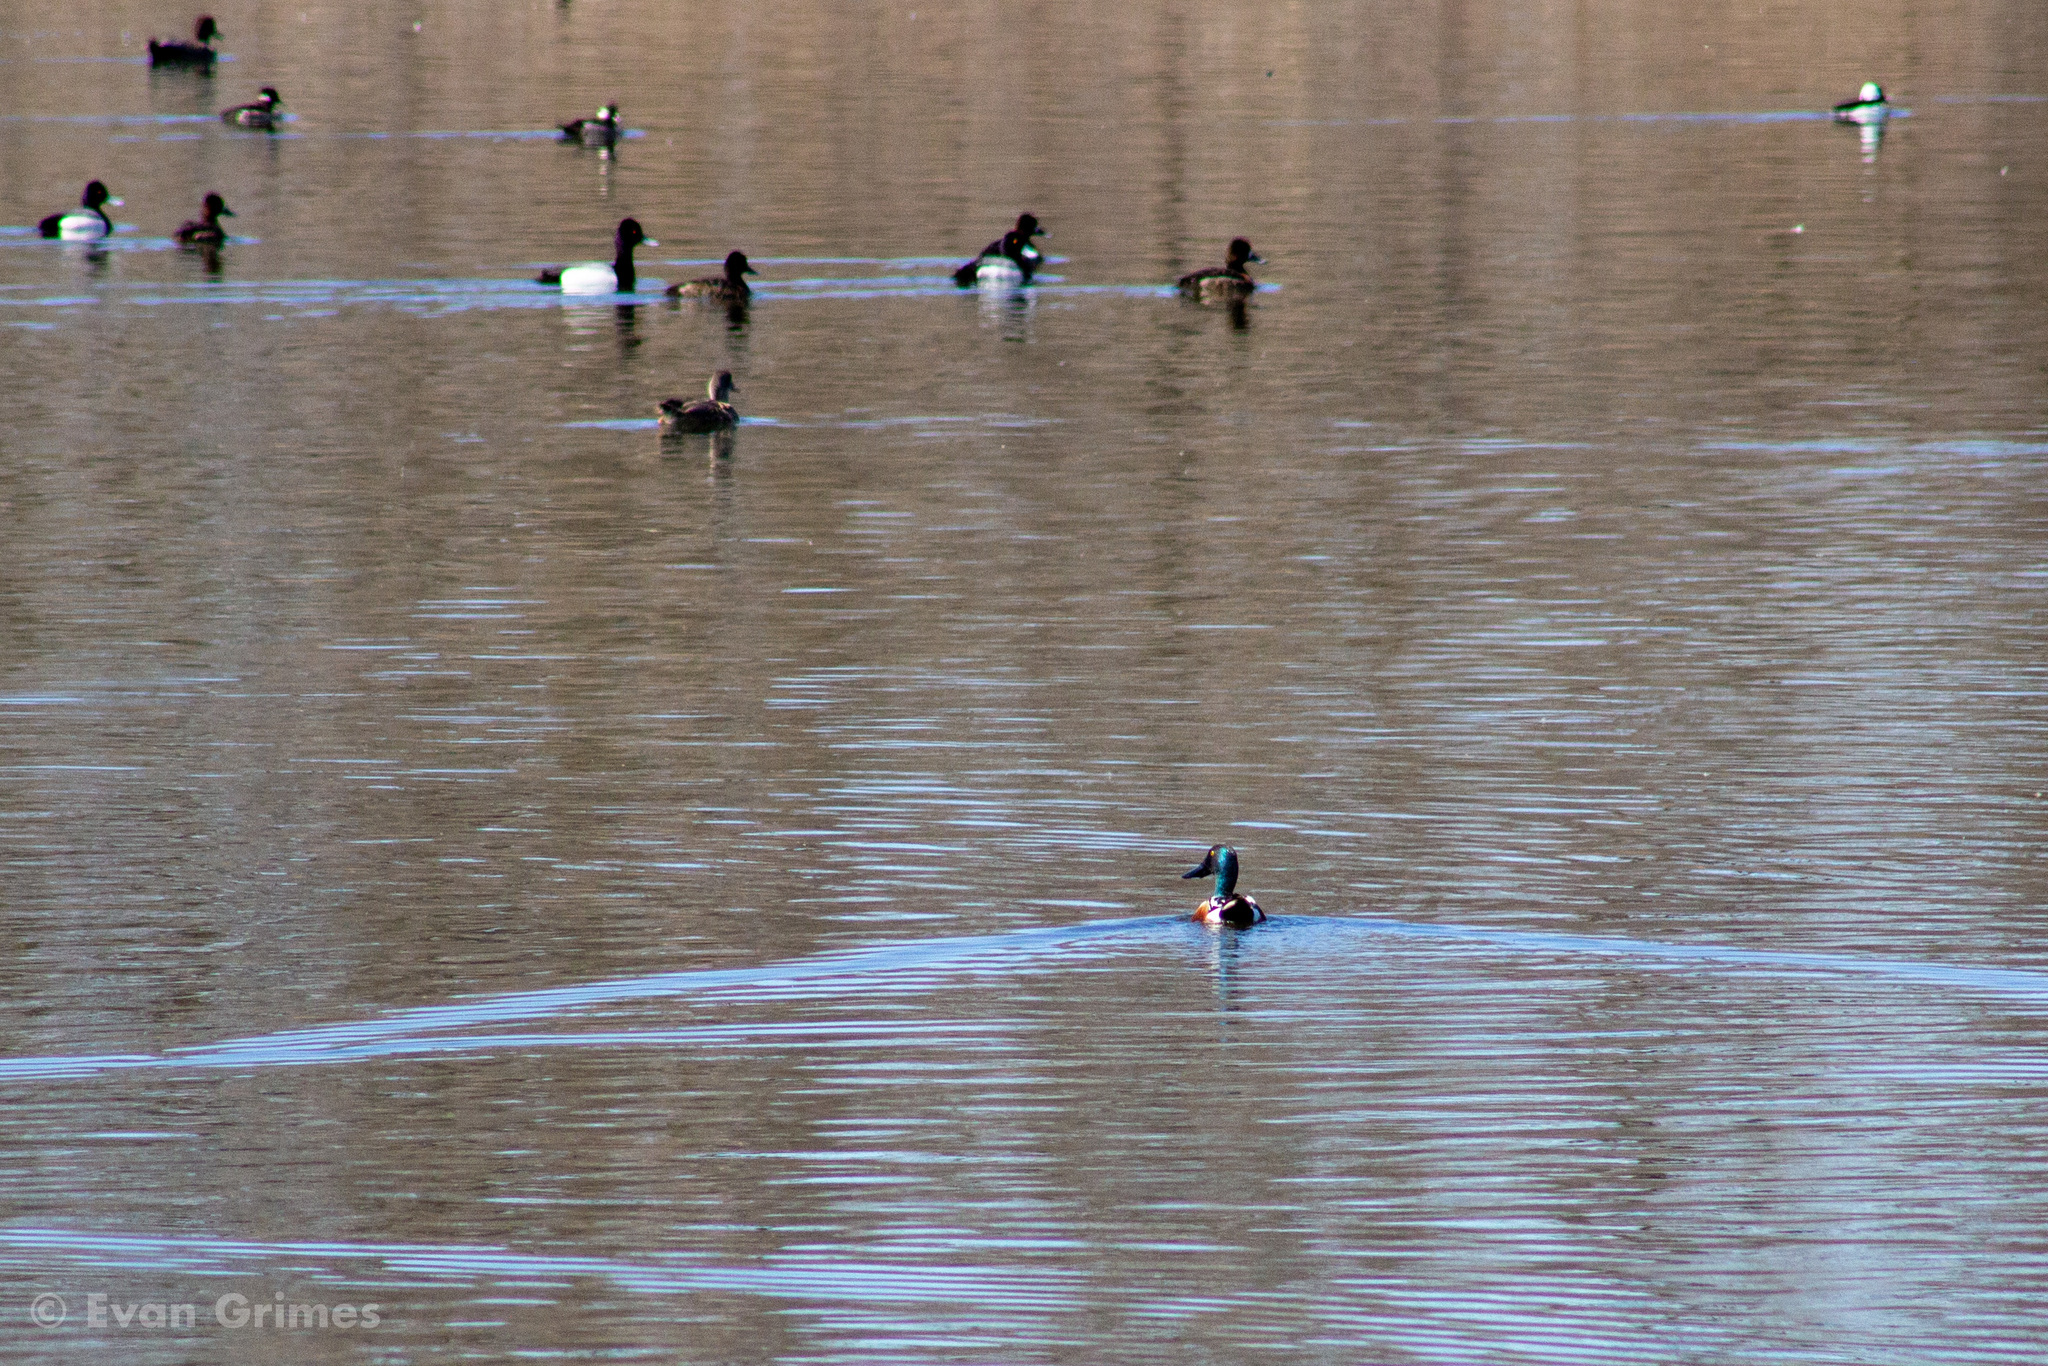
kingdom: Animalia
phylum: Chordata
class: Aves
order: Anseriformes
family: Anatidae
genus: Spatula
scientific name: Spatula clypeata
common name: Northern shoveler
